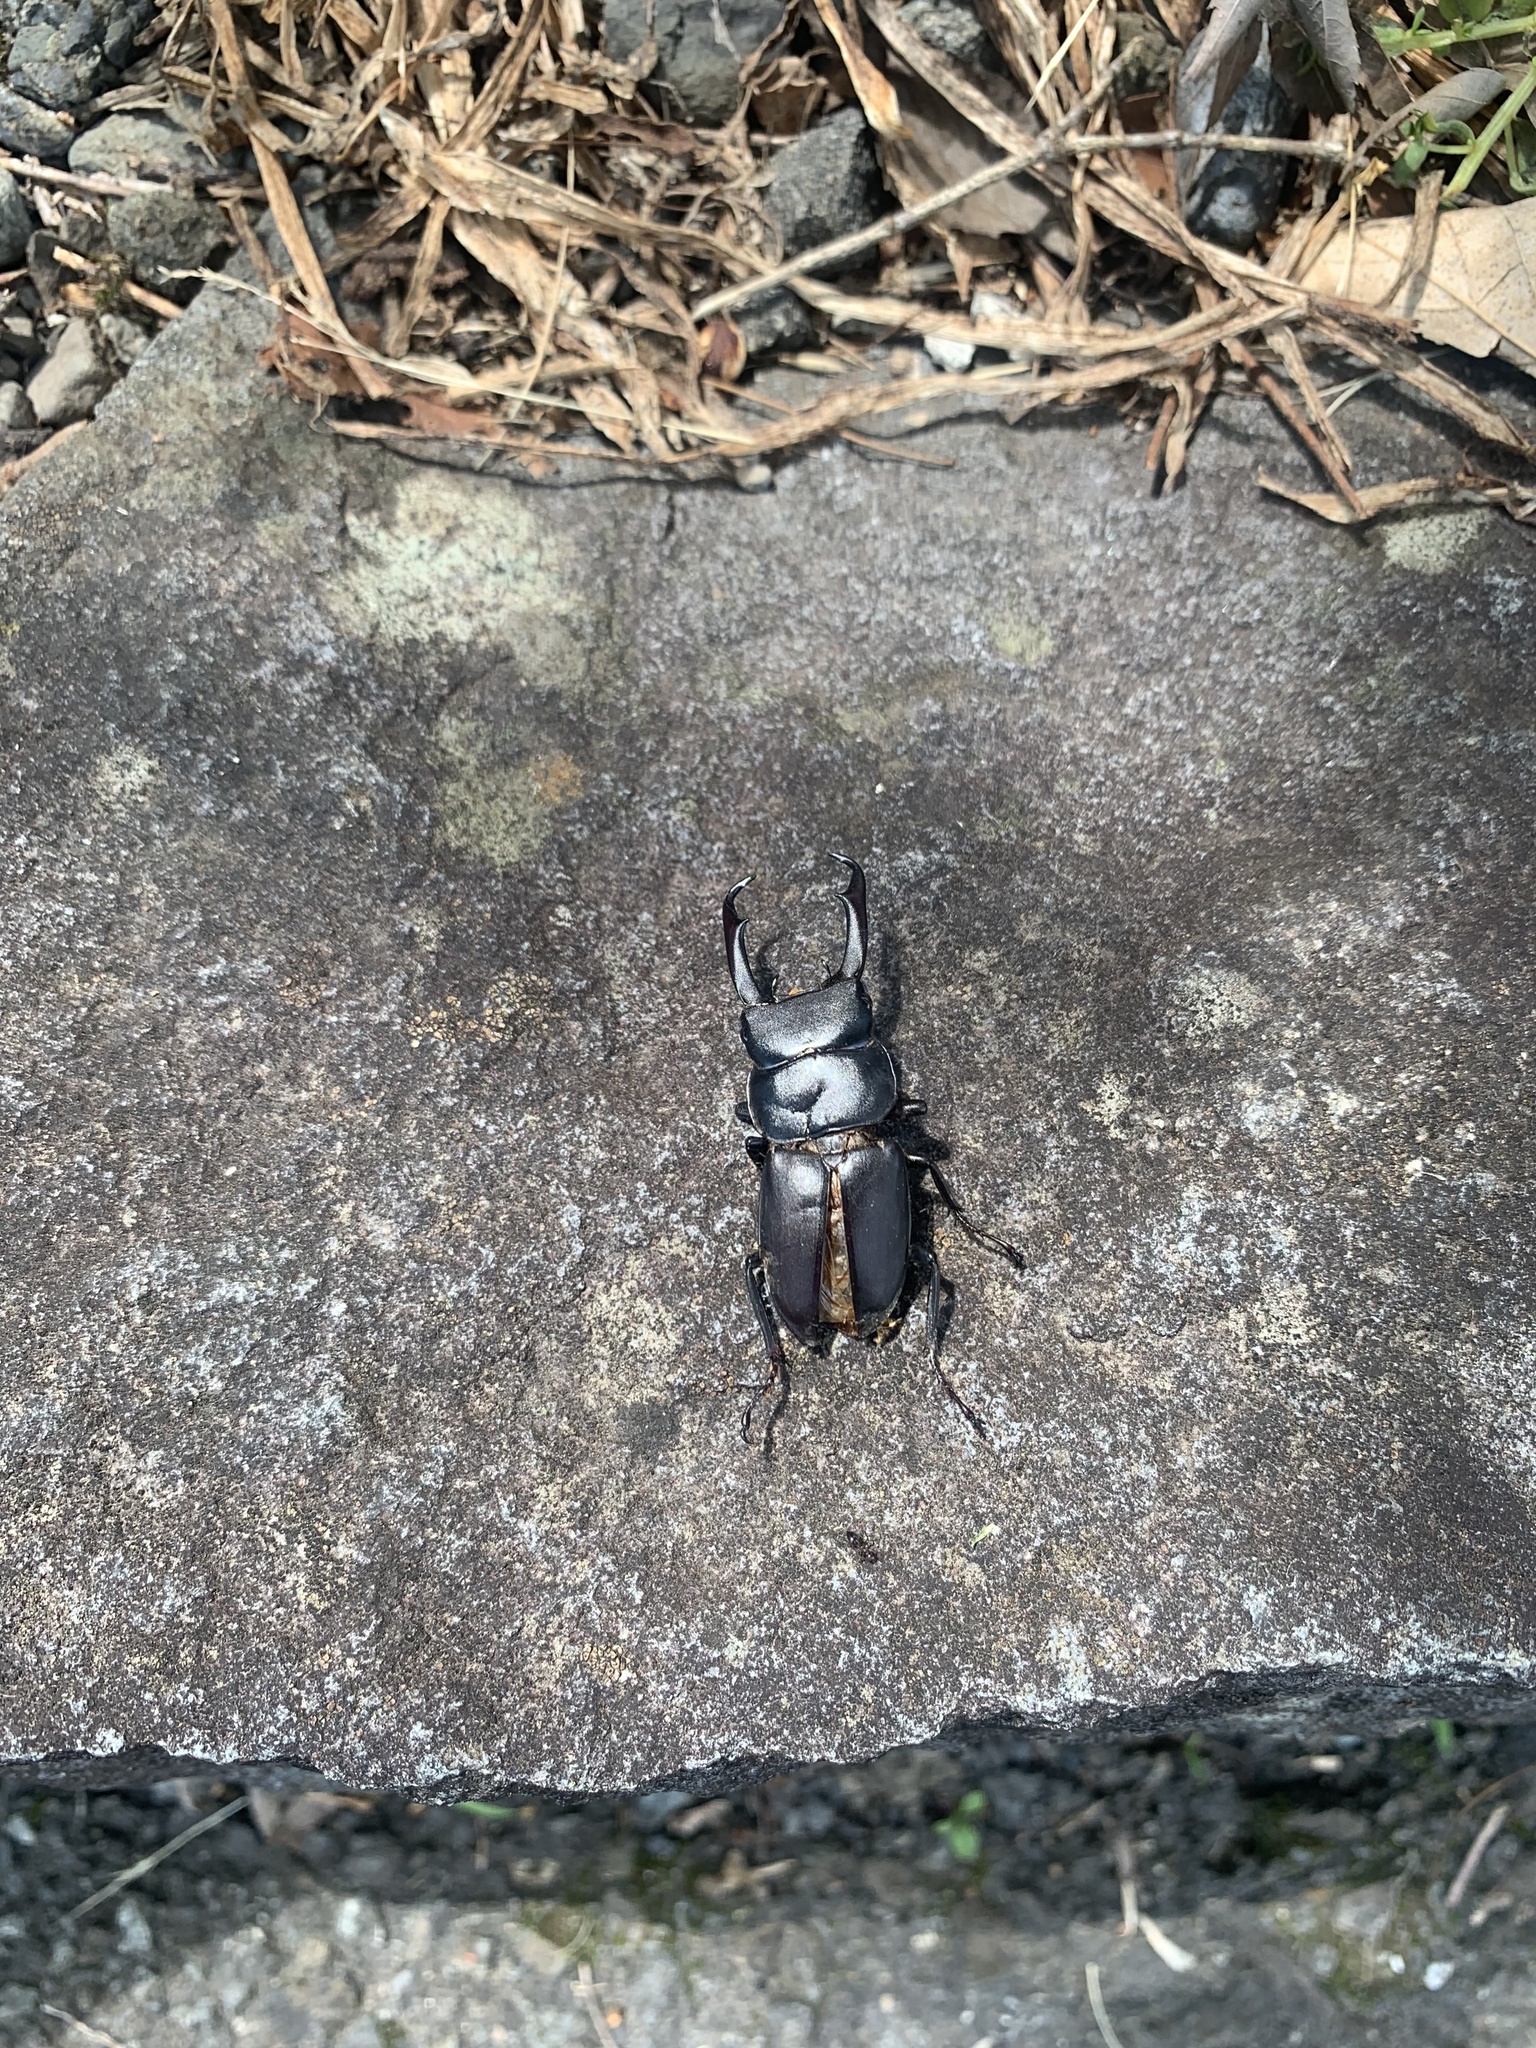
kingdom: Animalia
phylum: Arthropoda
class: Insecta
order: Coleoptera
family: Lucanidae
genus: Dorcus
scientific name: Dorcus rectus
